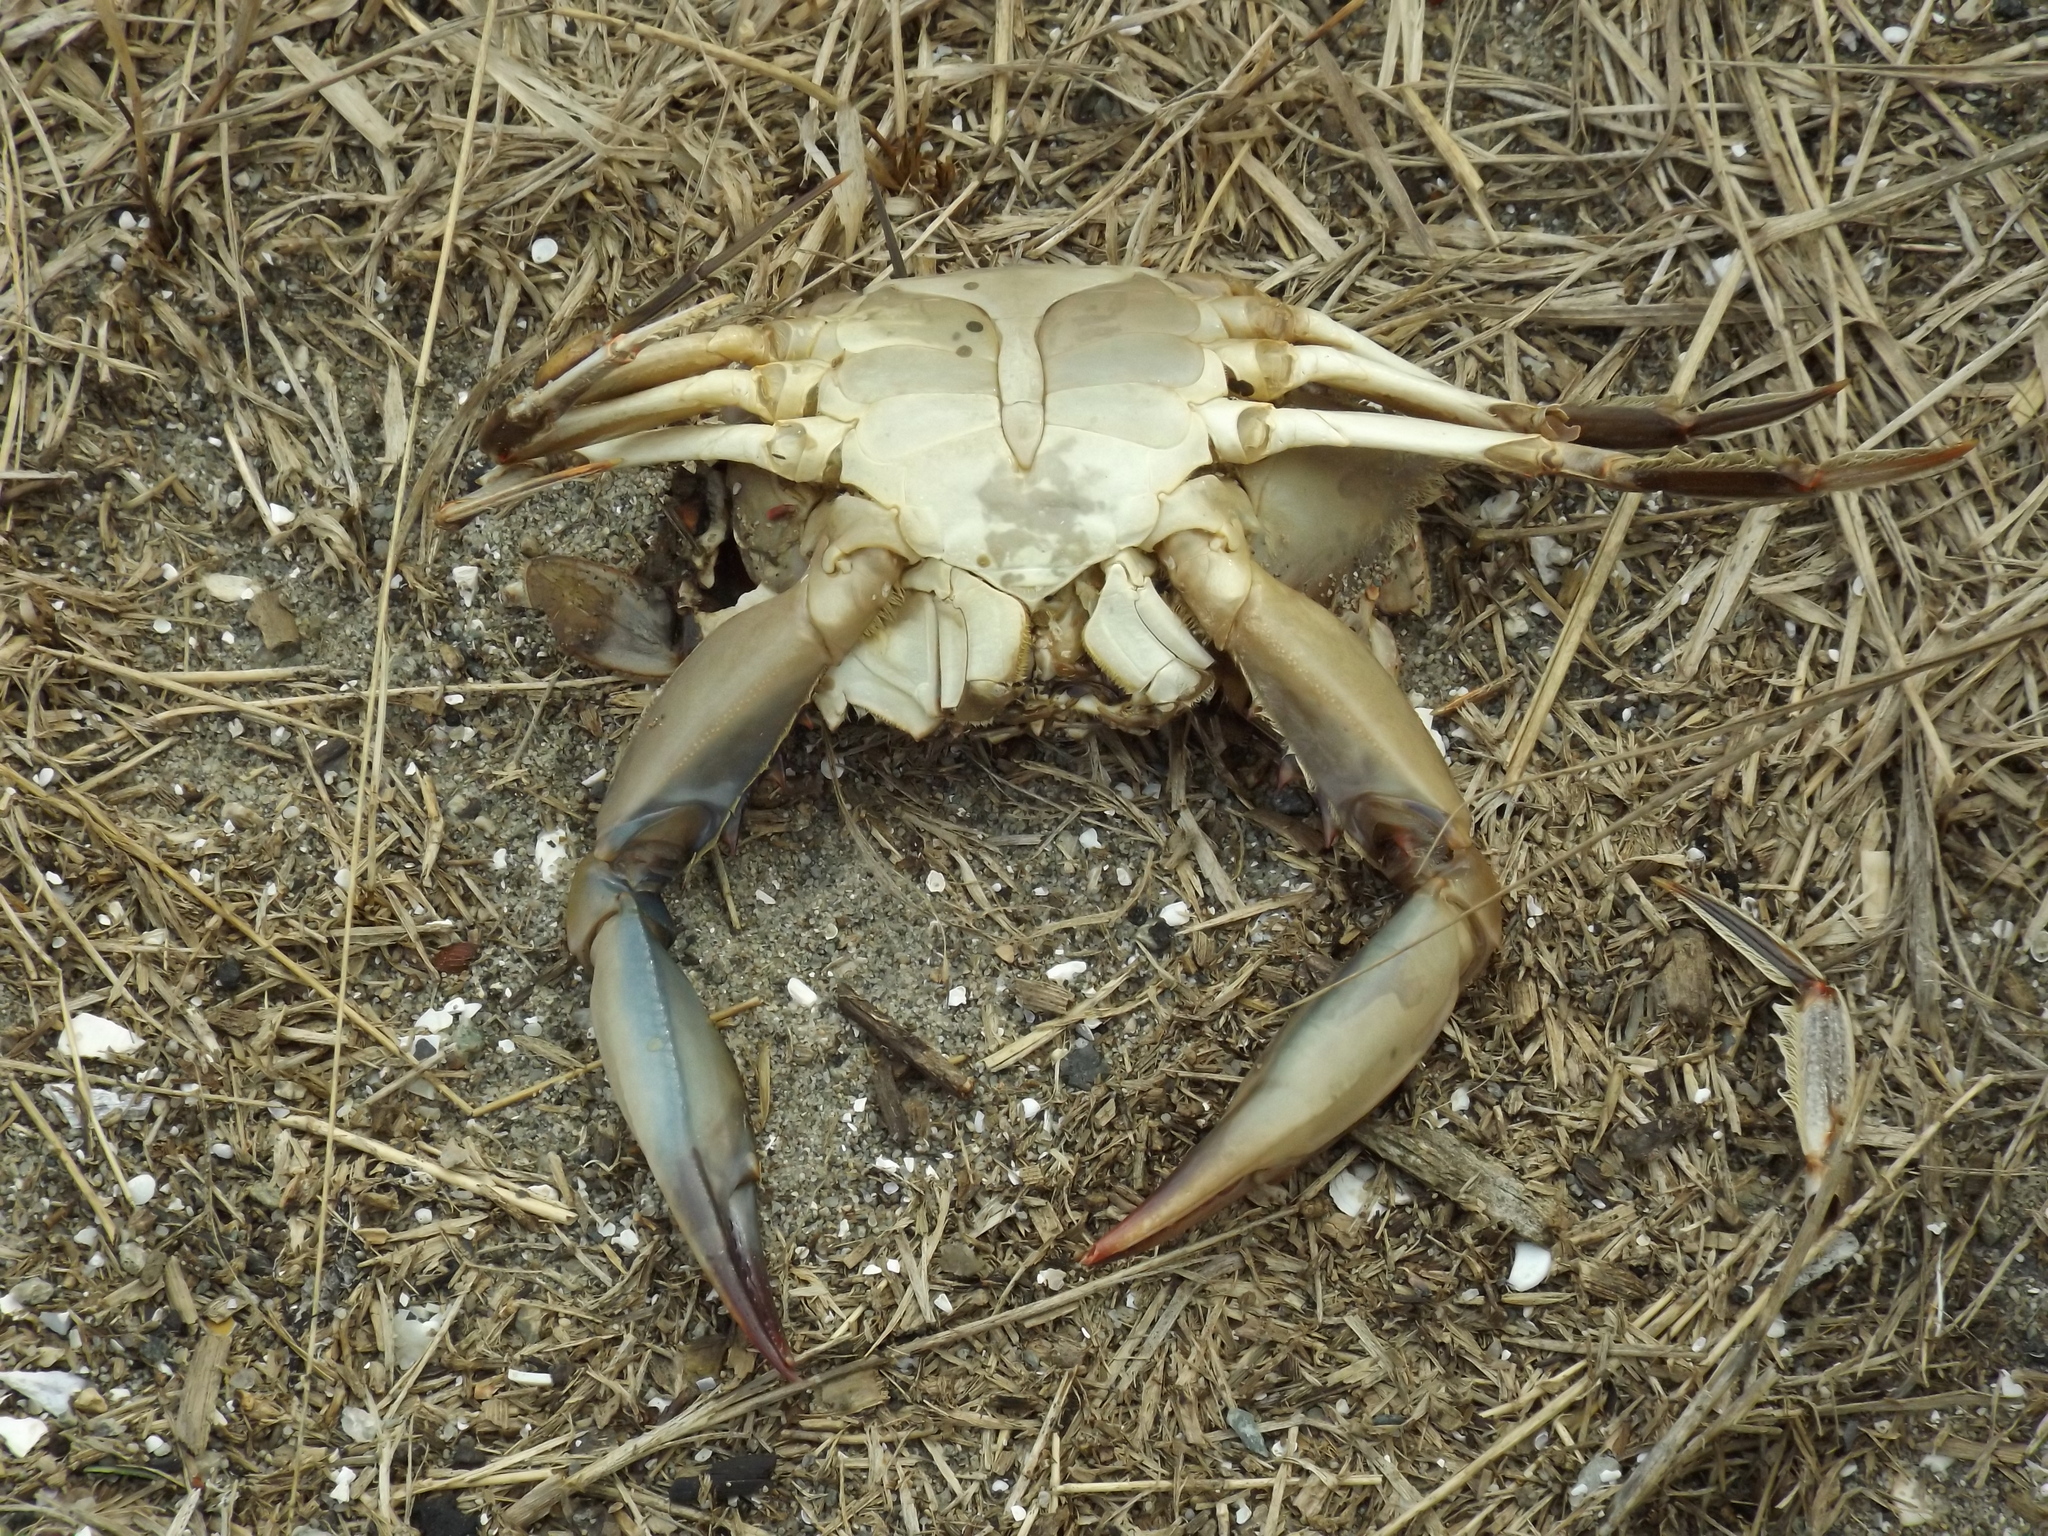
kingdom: Animalia
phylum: Arthropoda
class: Malacostraca
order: Decapoda
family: Portunidae
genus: Callinectes
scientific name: Callinectes sapidus
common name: Blue crab
